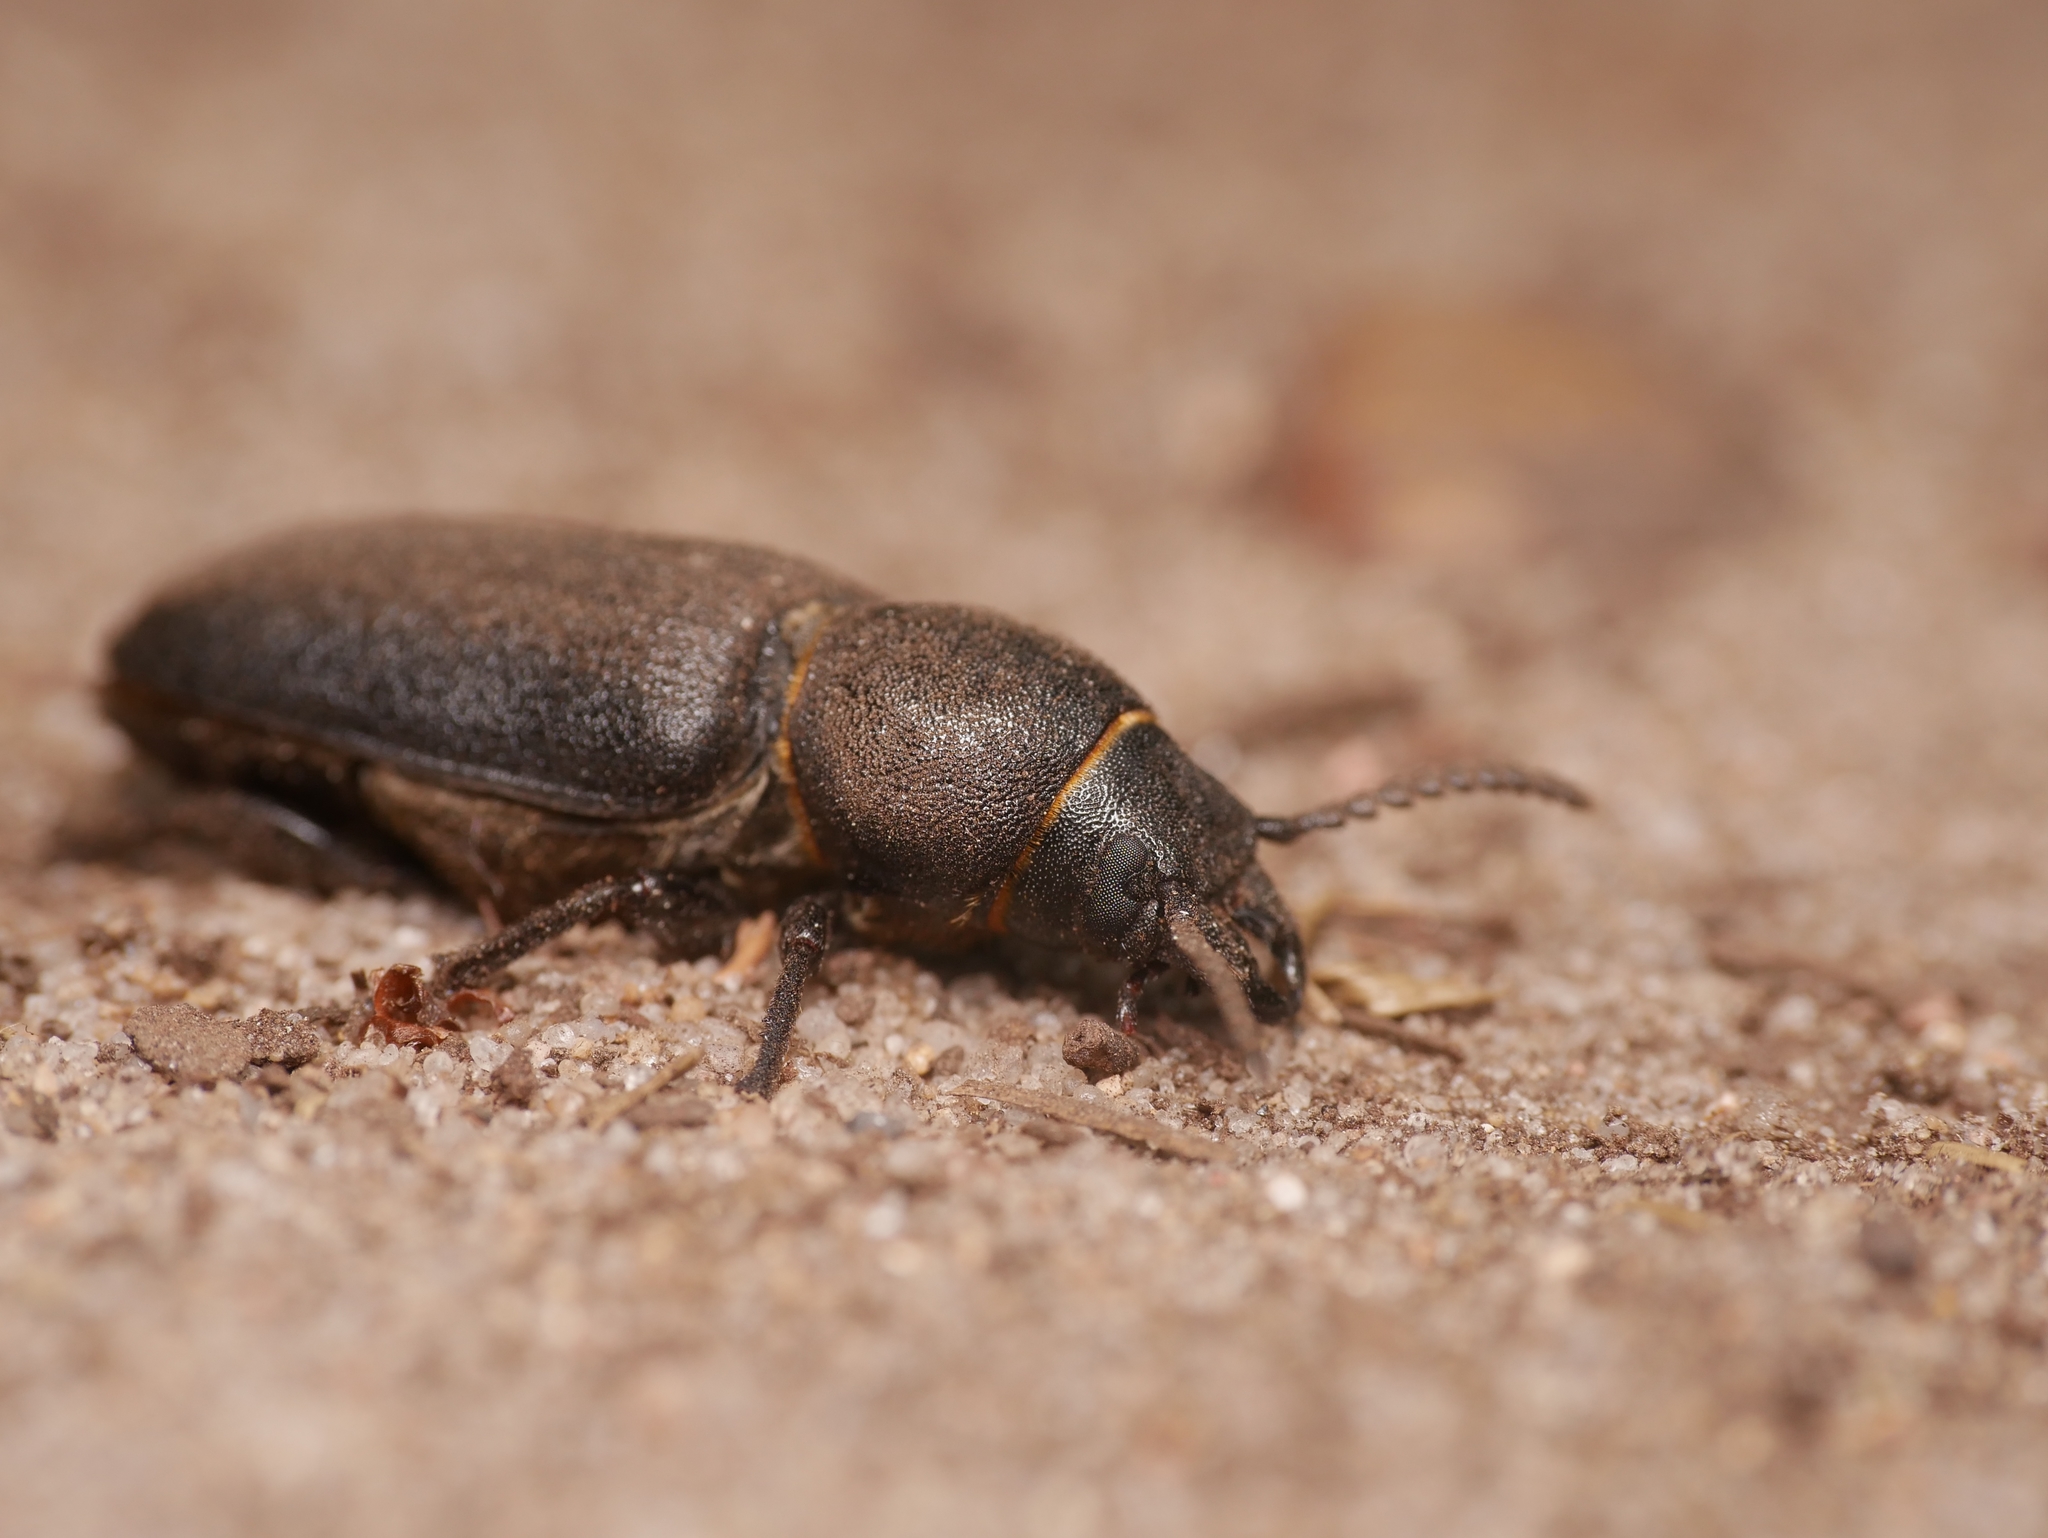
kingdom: Animalia
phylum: Arthropoda
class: Insecta
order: Coleoptera
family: Cerambycidae
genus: Spondylis
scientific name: Spondylis buprestoides
